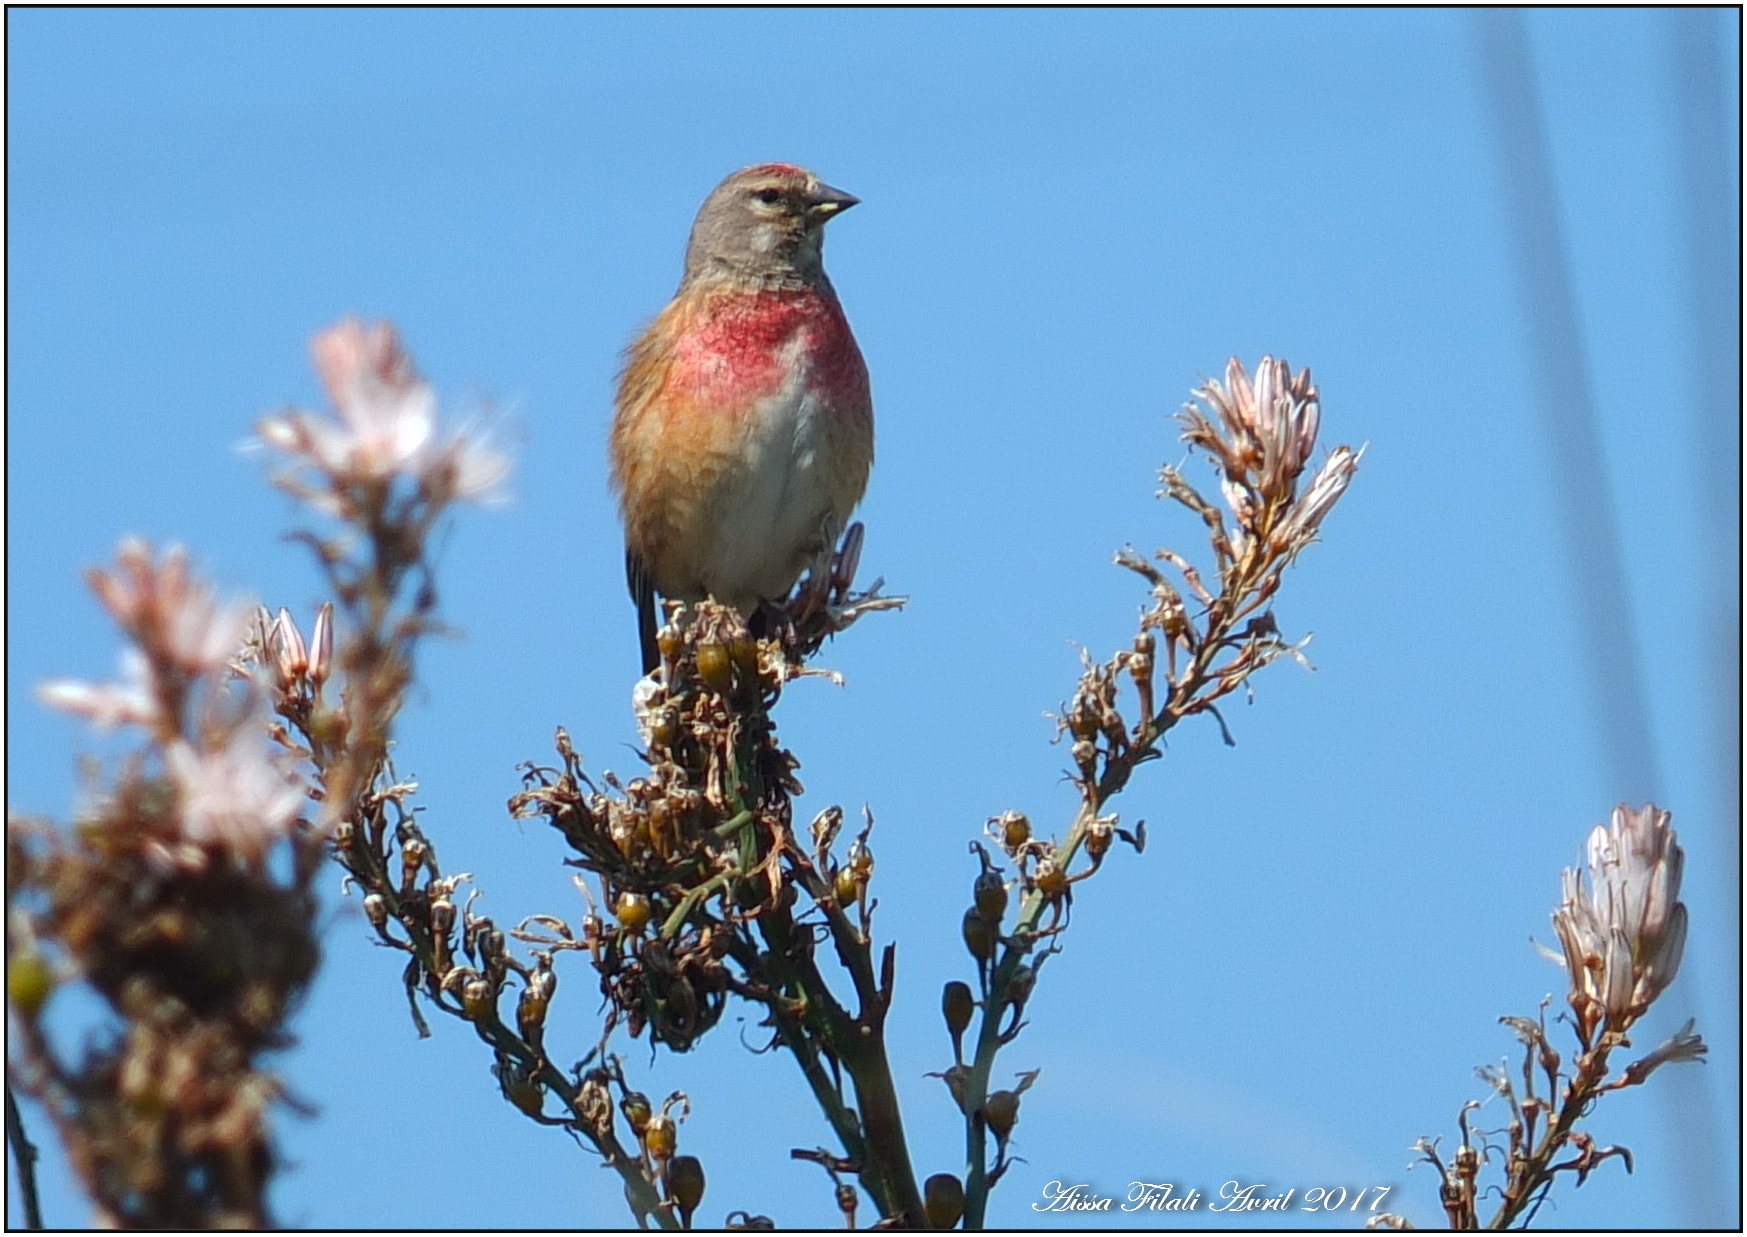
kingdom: Animalia
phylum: Chordata
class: Aves
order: Passeriformes
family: Fringillidae
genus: Linaria
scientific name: Linaria cannabina
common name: Common linnet
